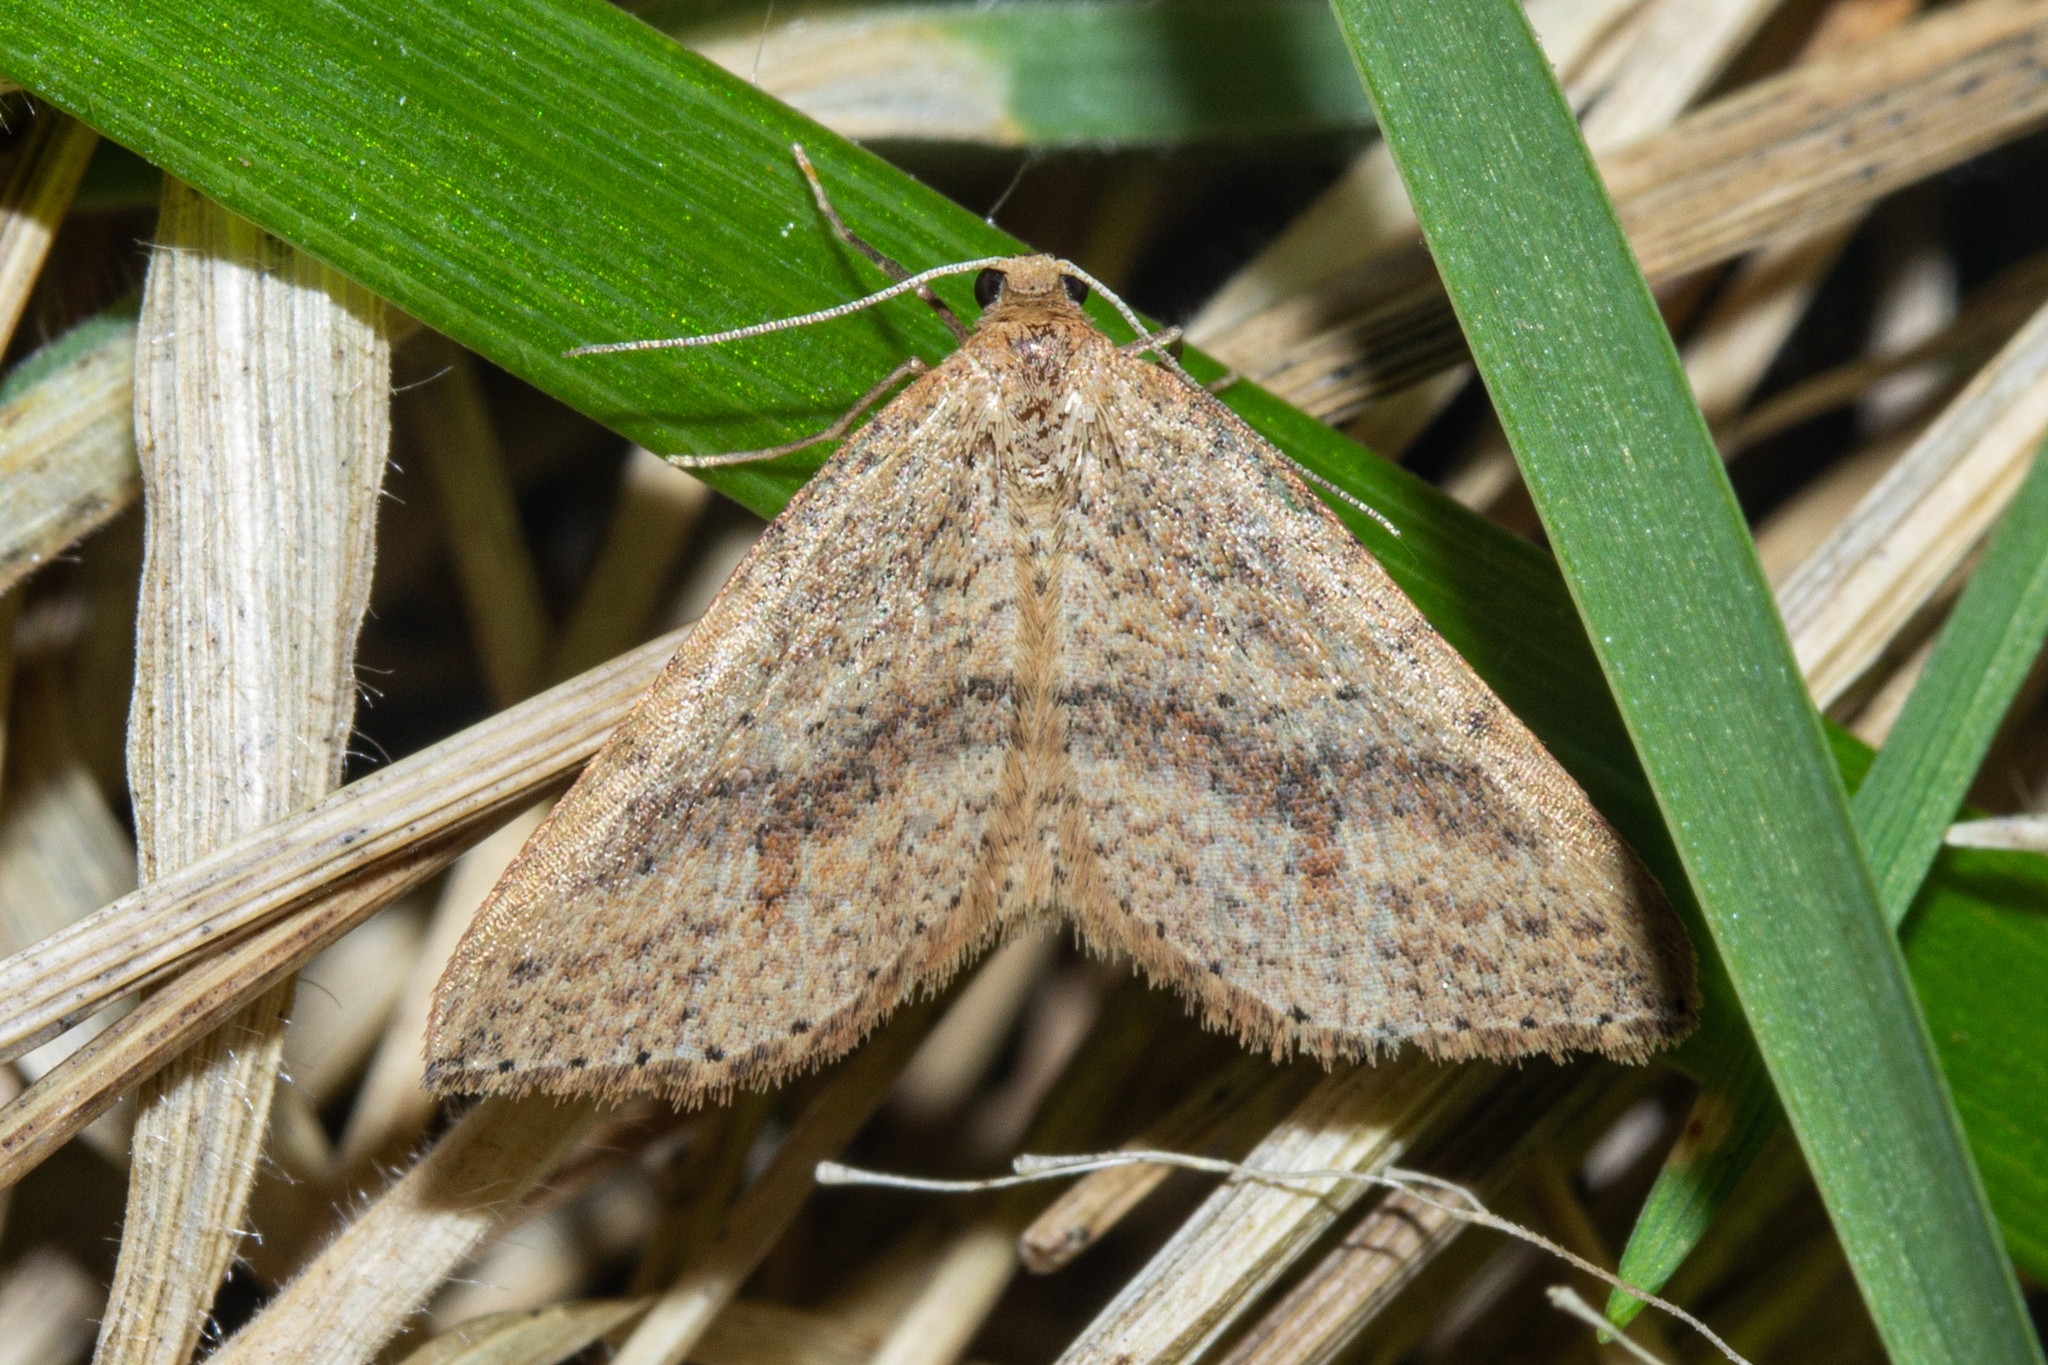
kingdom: Animalia
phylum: Arthropoda
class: Insecta
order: Lepidoptera
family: Geometridae
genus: Epicyme
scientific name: Epicyme rubropunctaria
